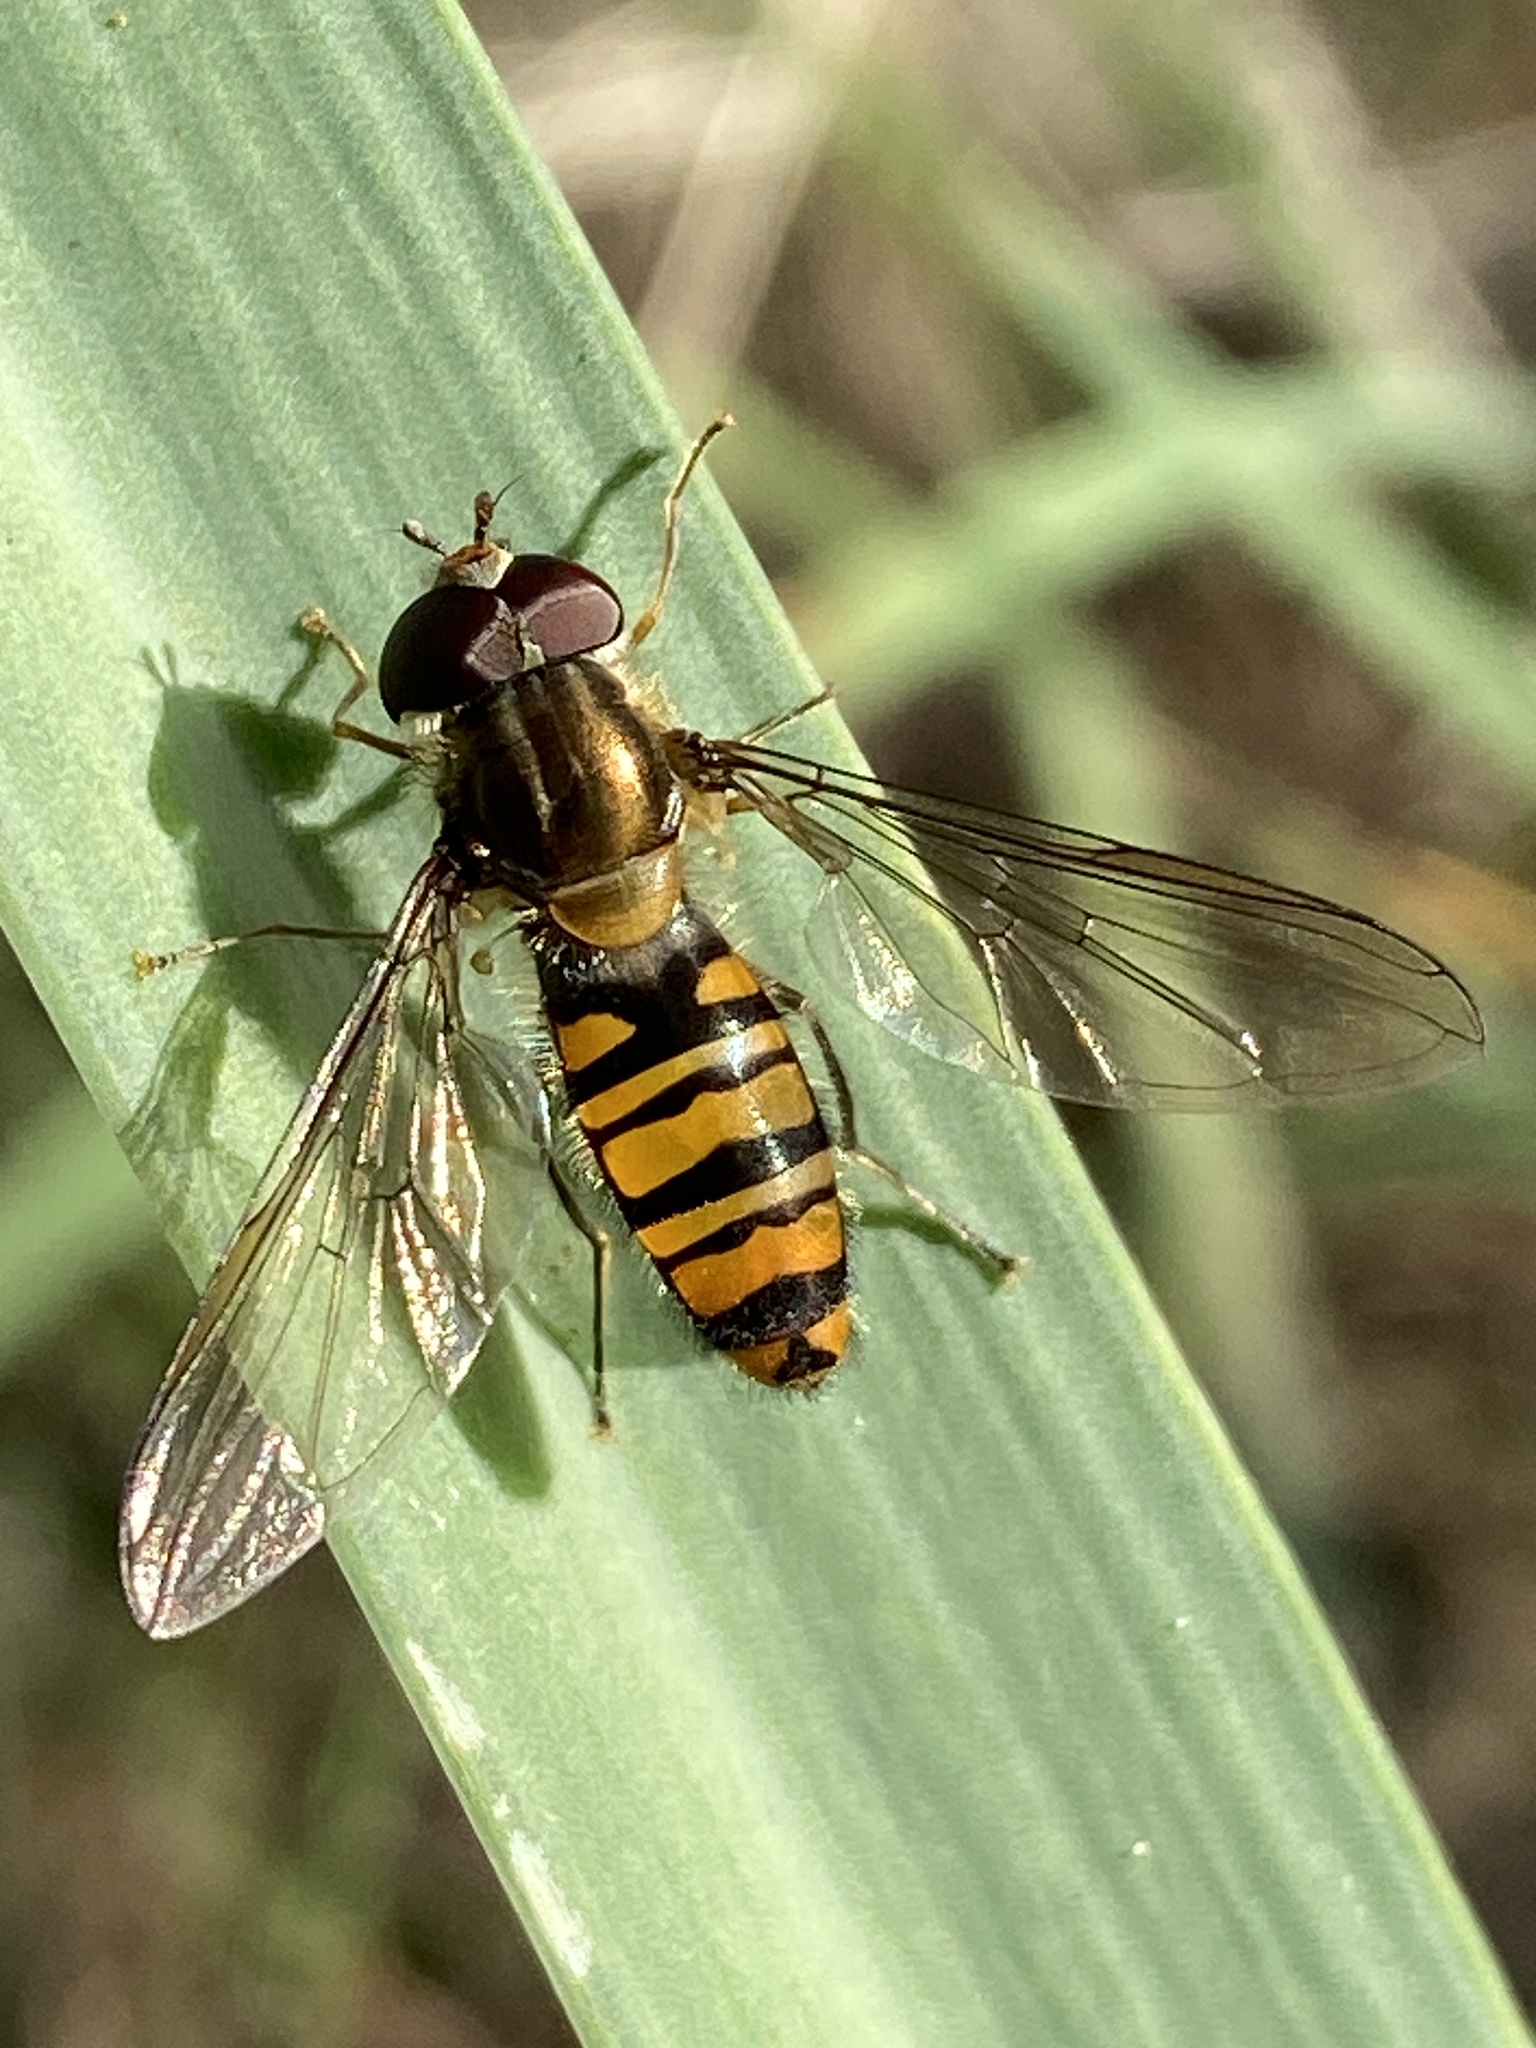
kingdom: Animalia
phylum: Arthropoda
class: Insecta
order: Diptera
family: Syrphidae
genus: Episyrphus
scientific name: Episyrphus balteatus
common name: Marmalade hoverfly
